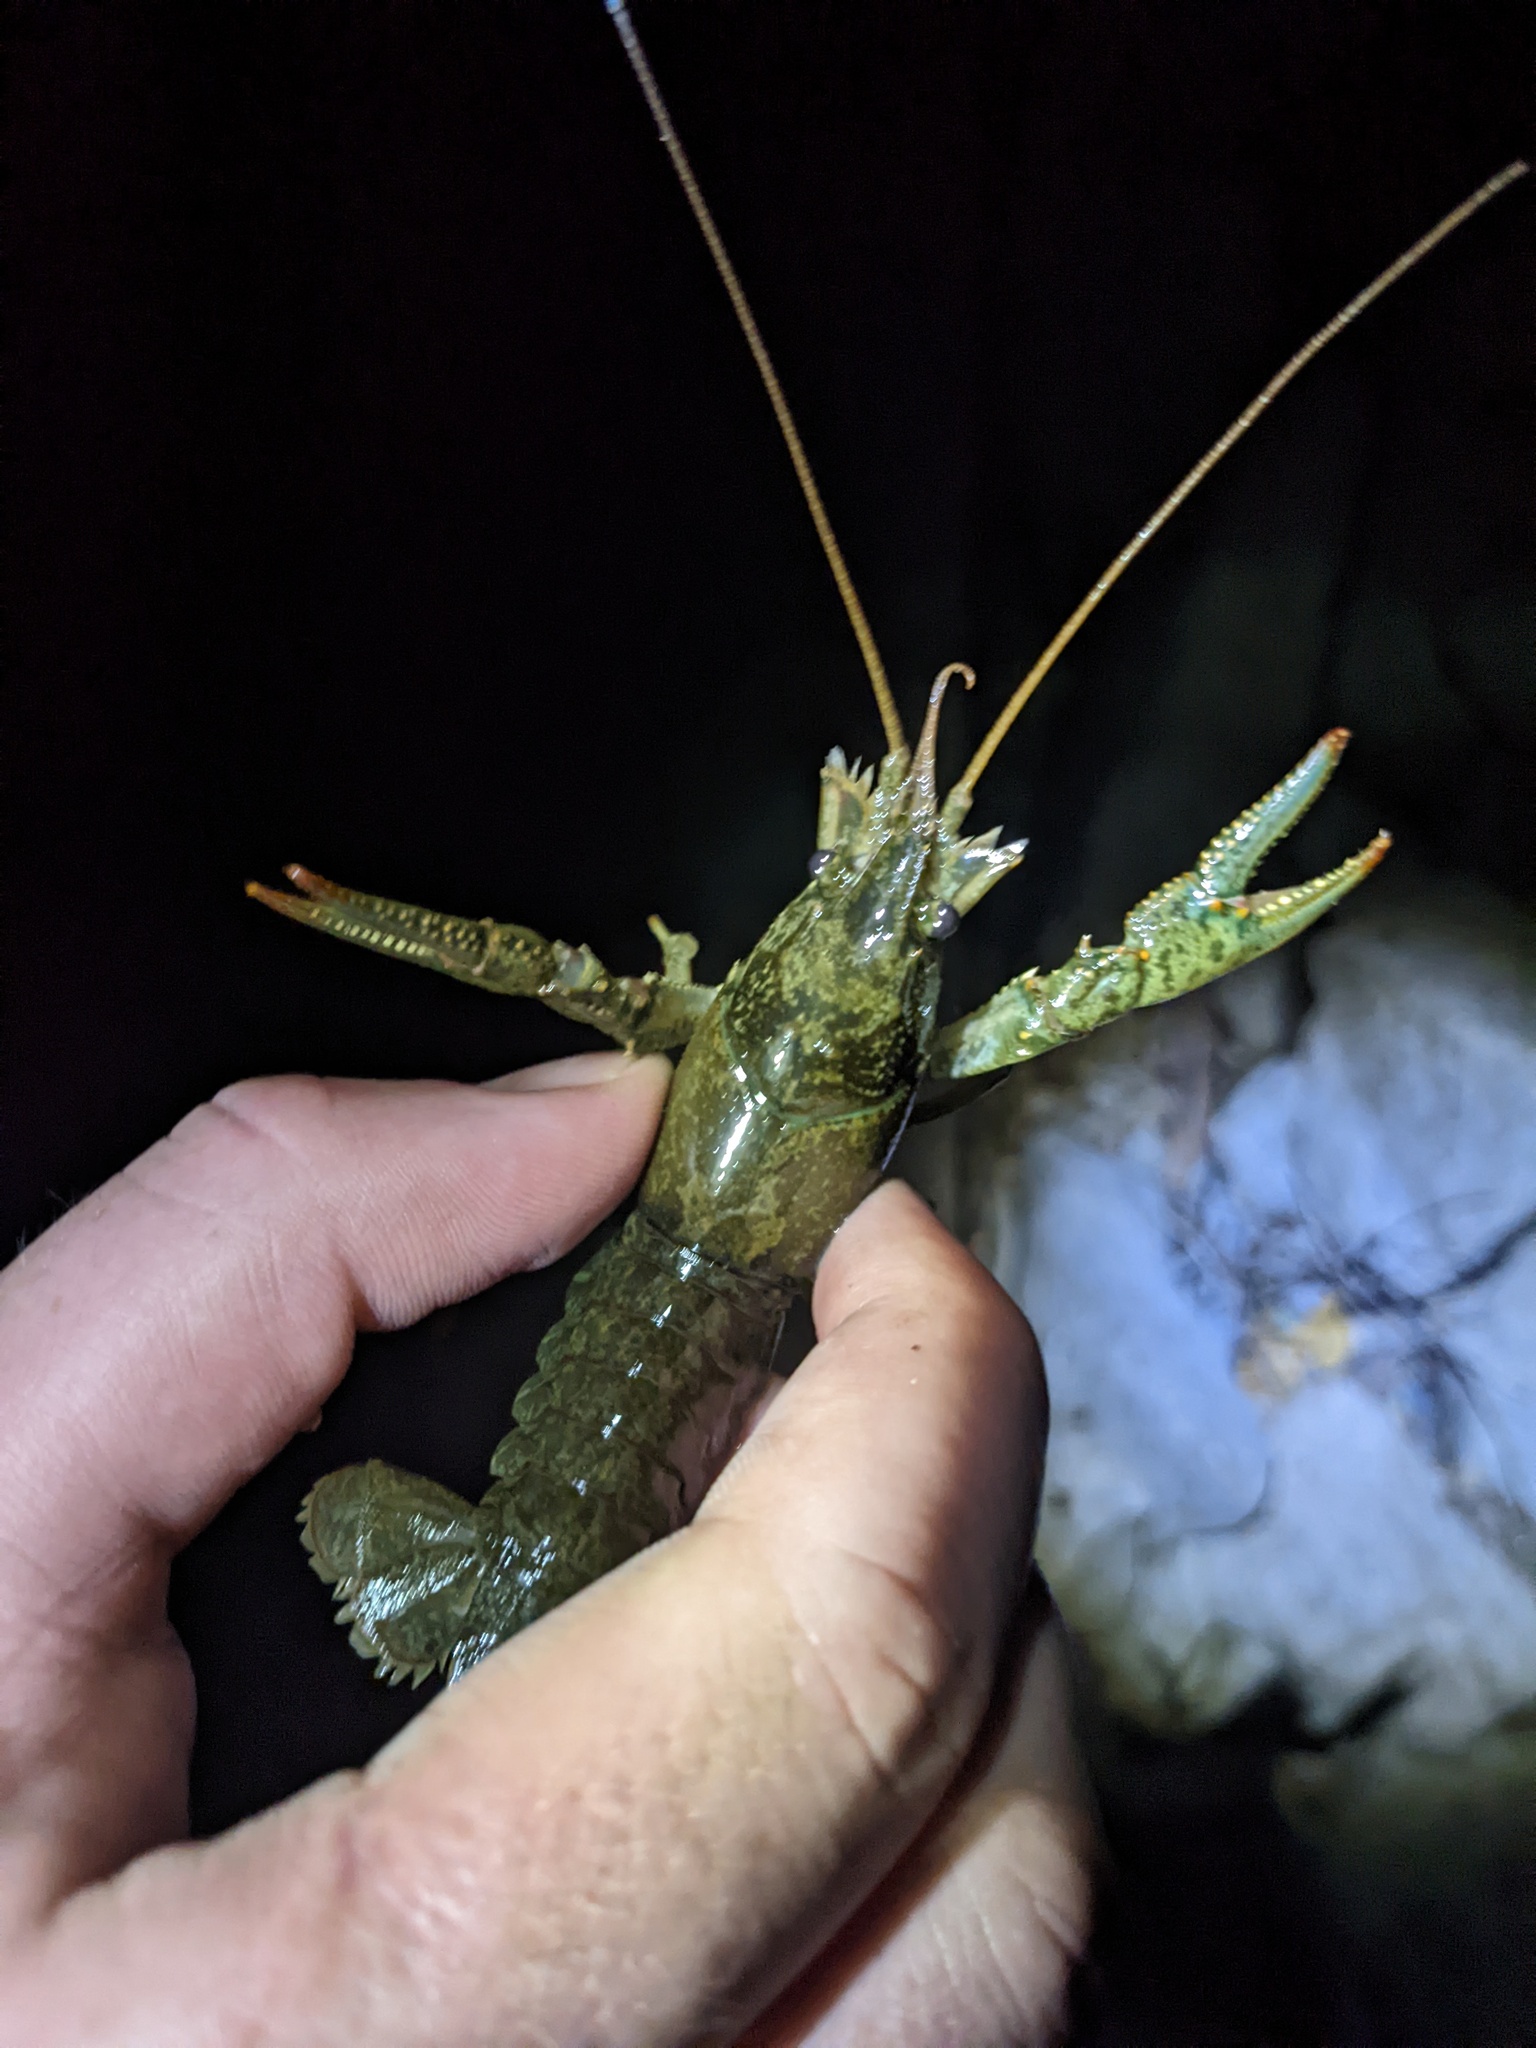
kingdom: Animalia
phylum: Arthropoda
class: Malacostraca
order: Decapoda
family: Cambaridae
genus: Faxonius
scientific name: Faxonius virilis
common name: Virile crayfish
